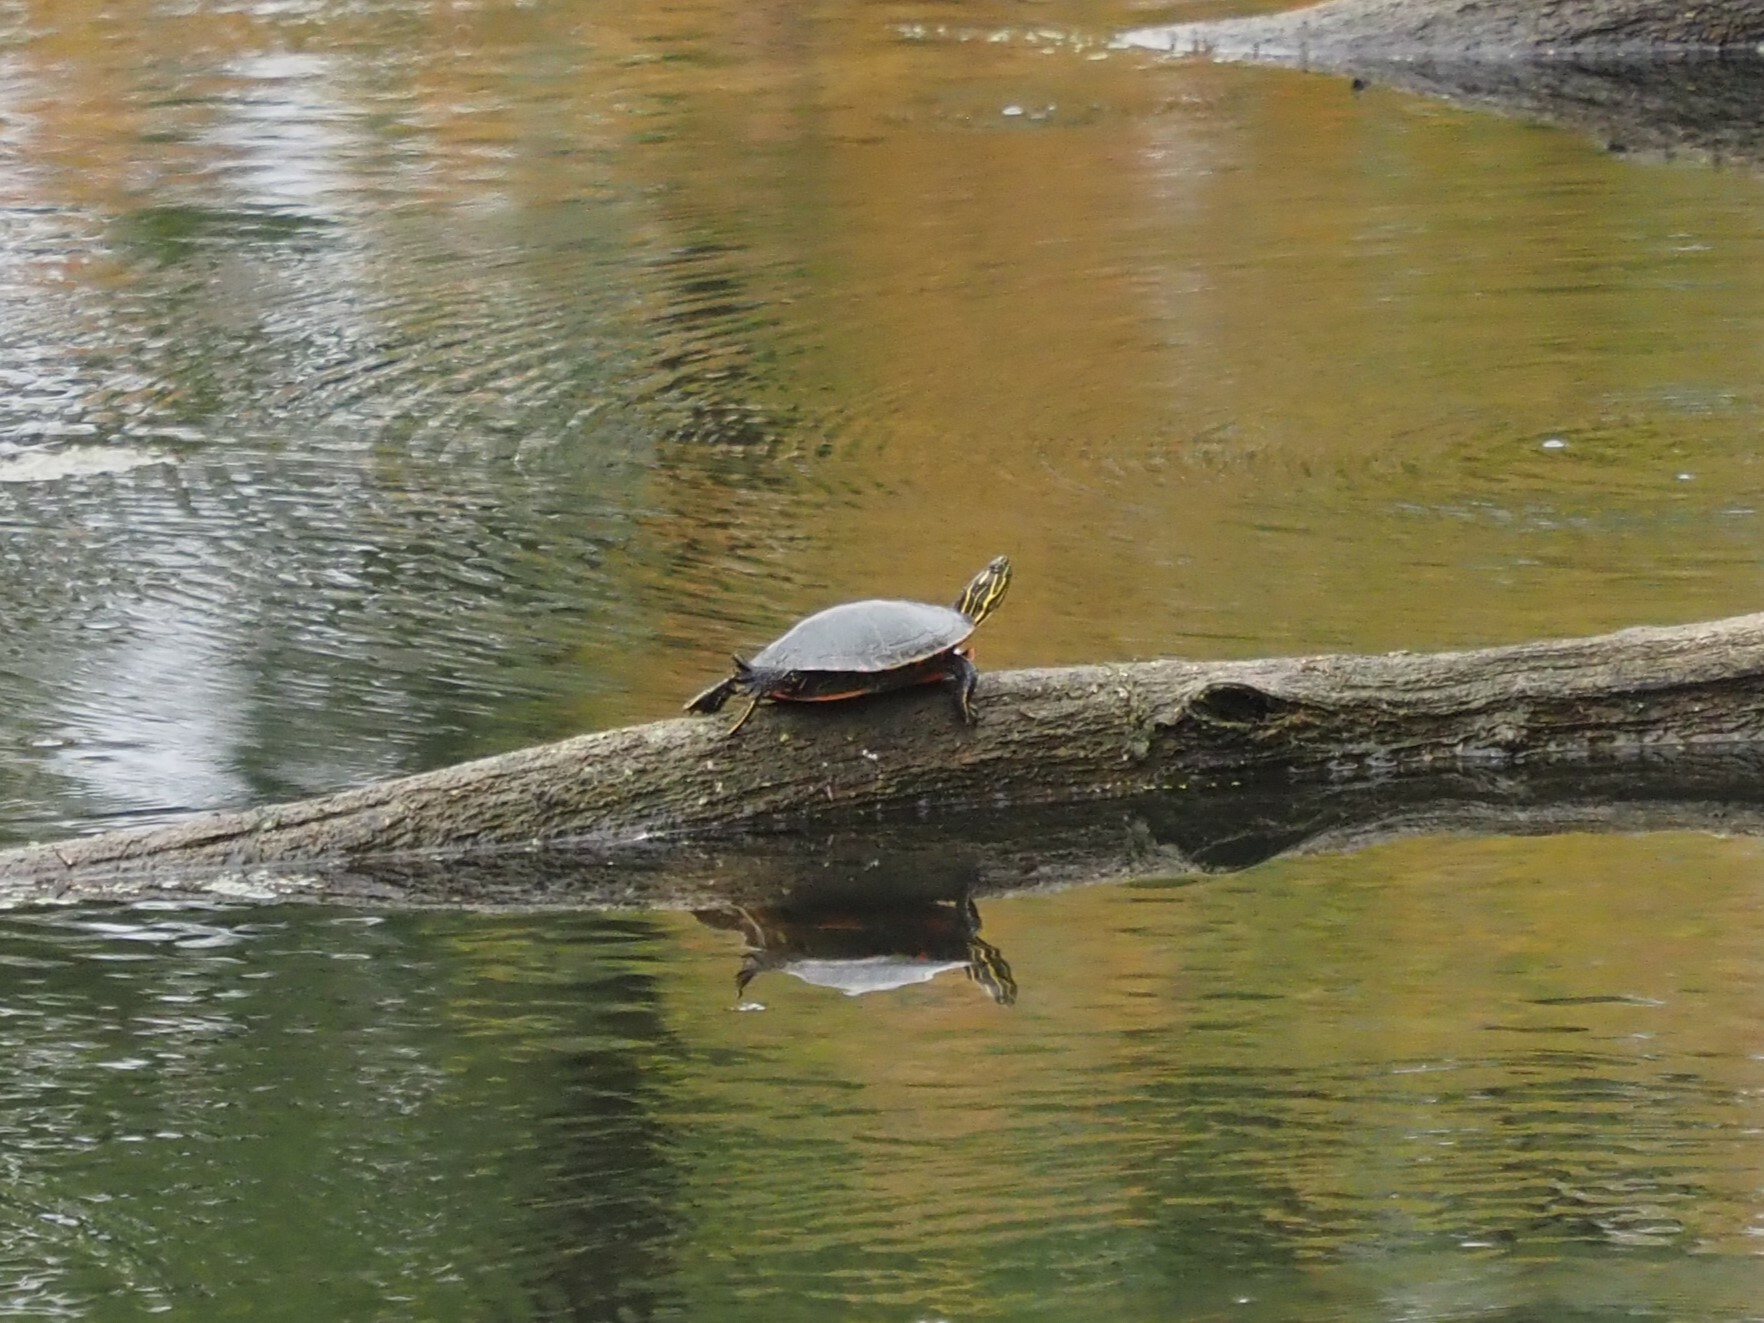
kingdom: Animalia
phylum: Chordata
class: Testudines
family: Emydidae
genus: Chrysemys
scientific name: Chrysemys picta
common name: Painted turtle
